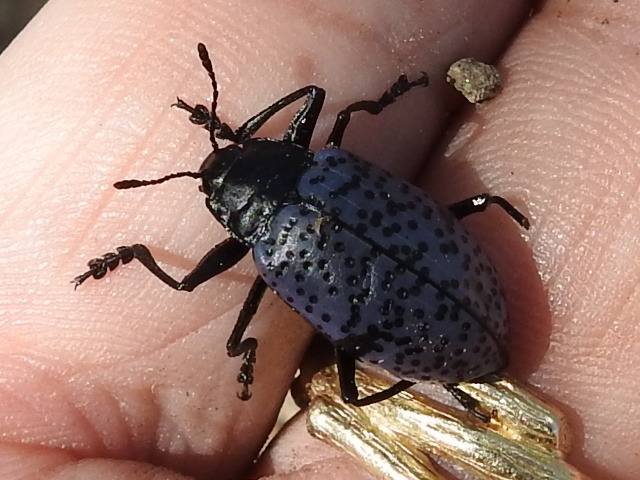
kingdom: Animalia
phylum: Arthropoda
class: Insecta
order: Coleoptera
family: Erotylidae
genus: Gibbifer
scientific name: Gibbifer californicus
